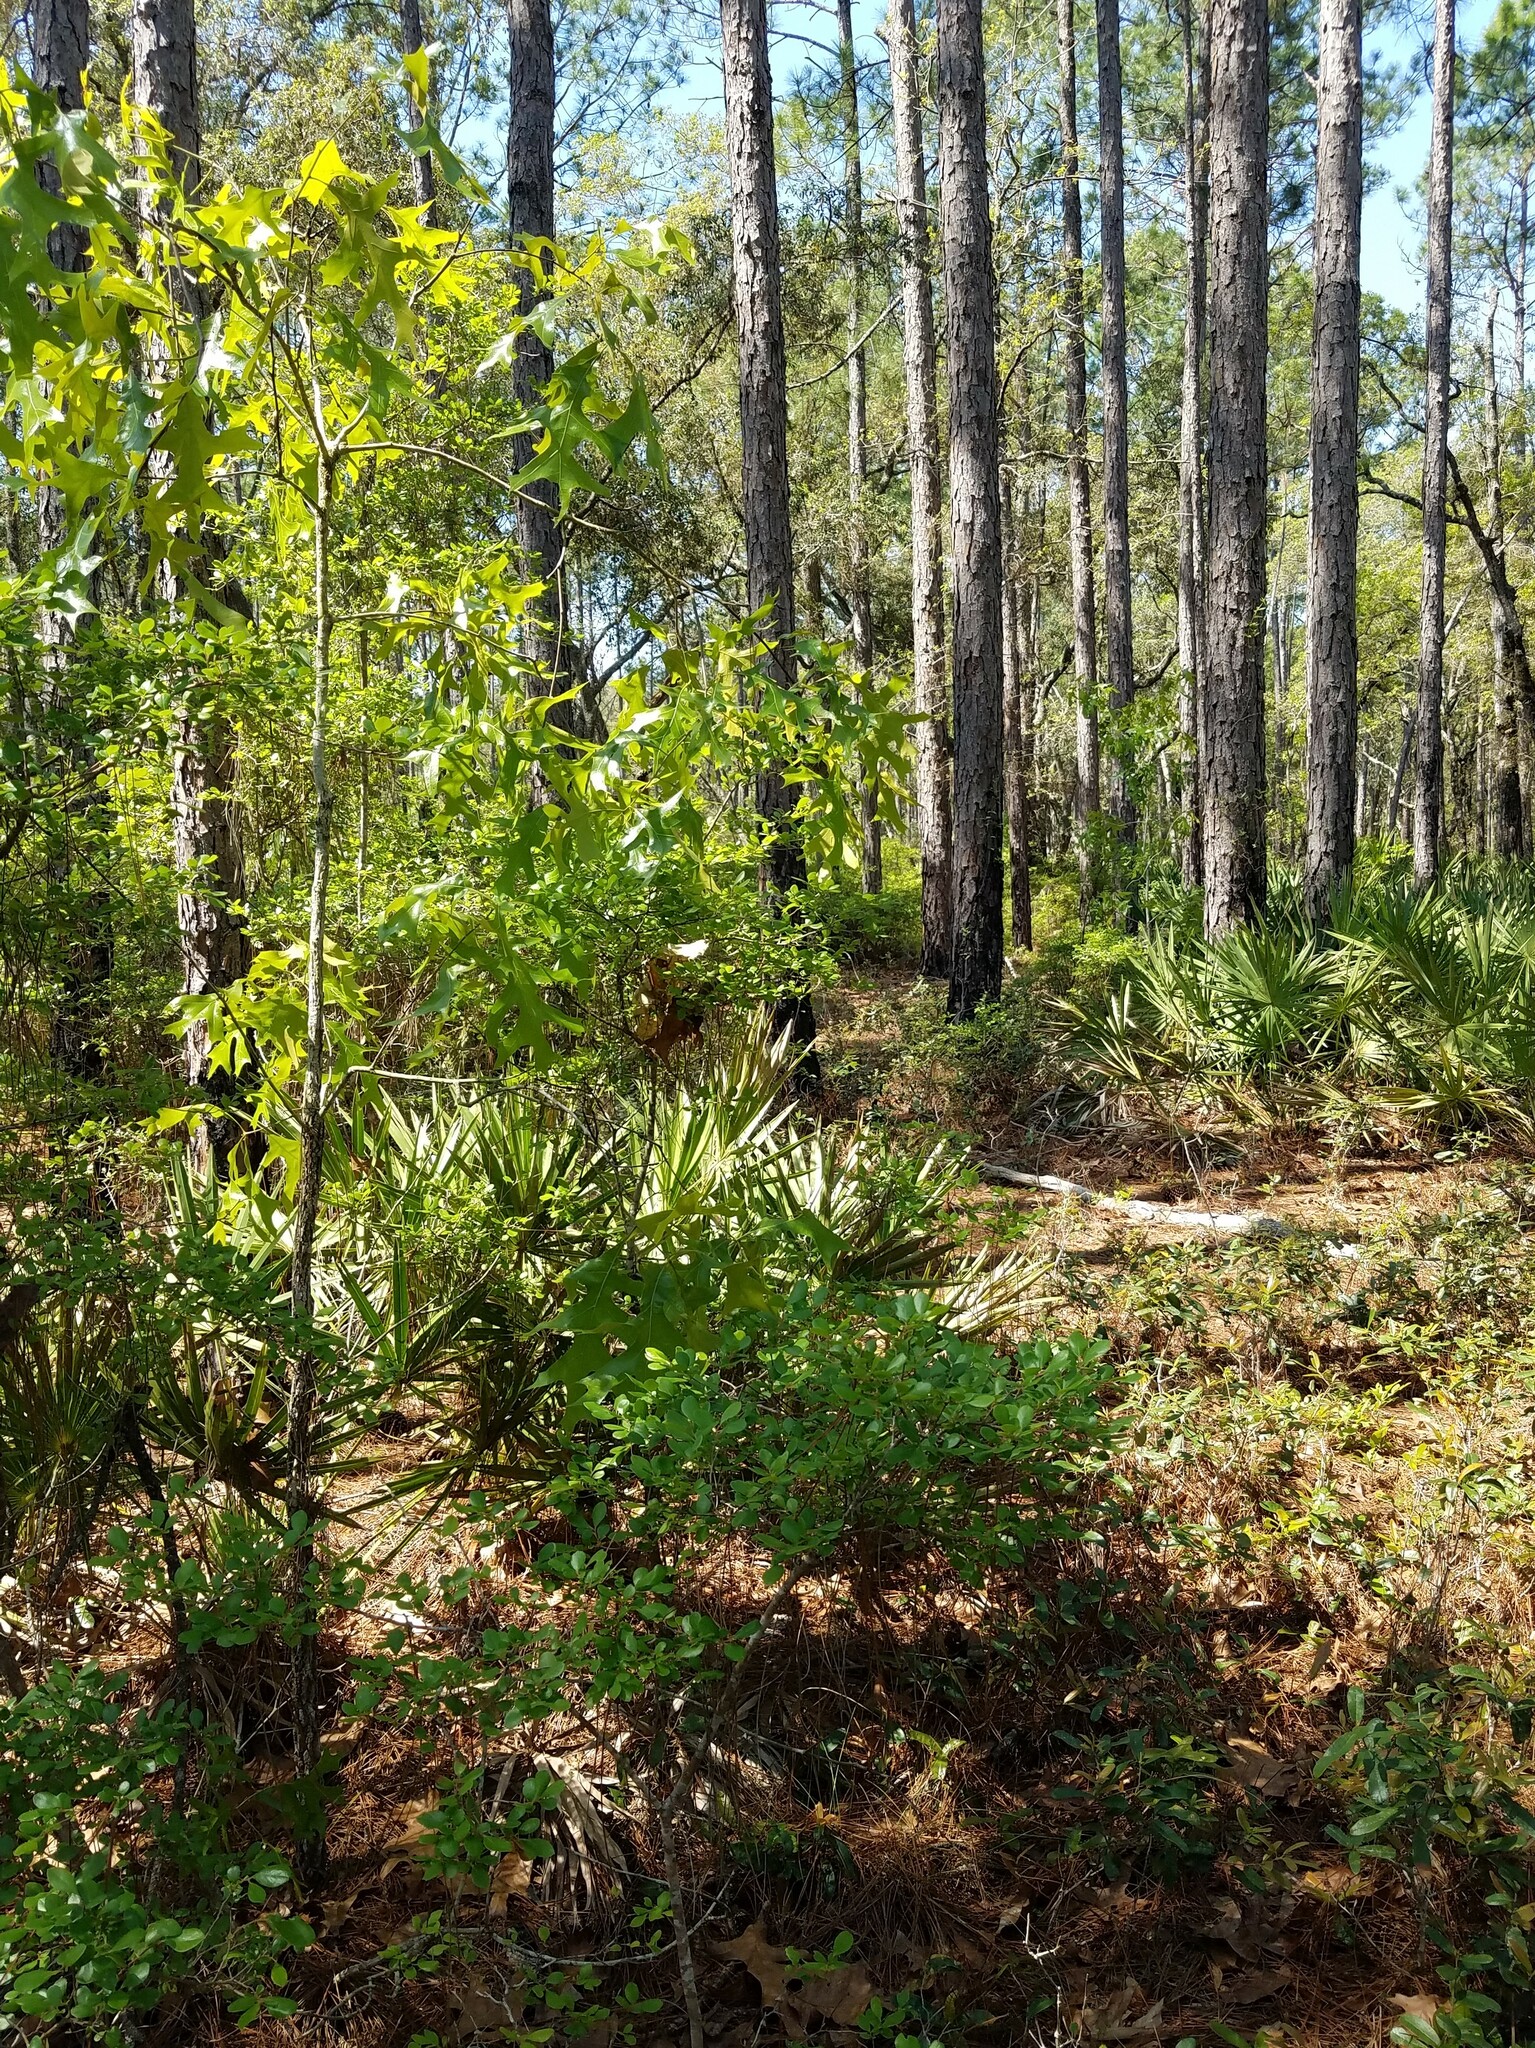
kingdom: Plantae
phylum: Tracheophyta
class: Magnoliopsida
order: Fagales
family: Fagaceae
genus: Quercus
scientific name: Quercus laevis
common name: Turkey oak
